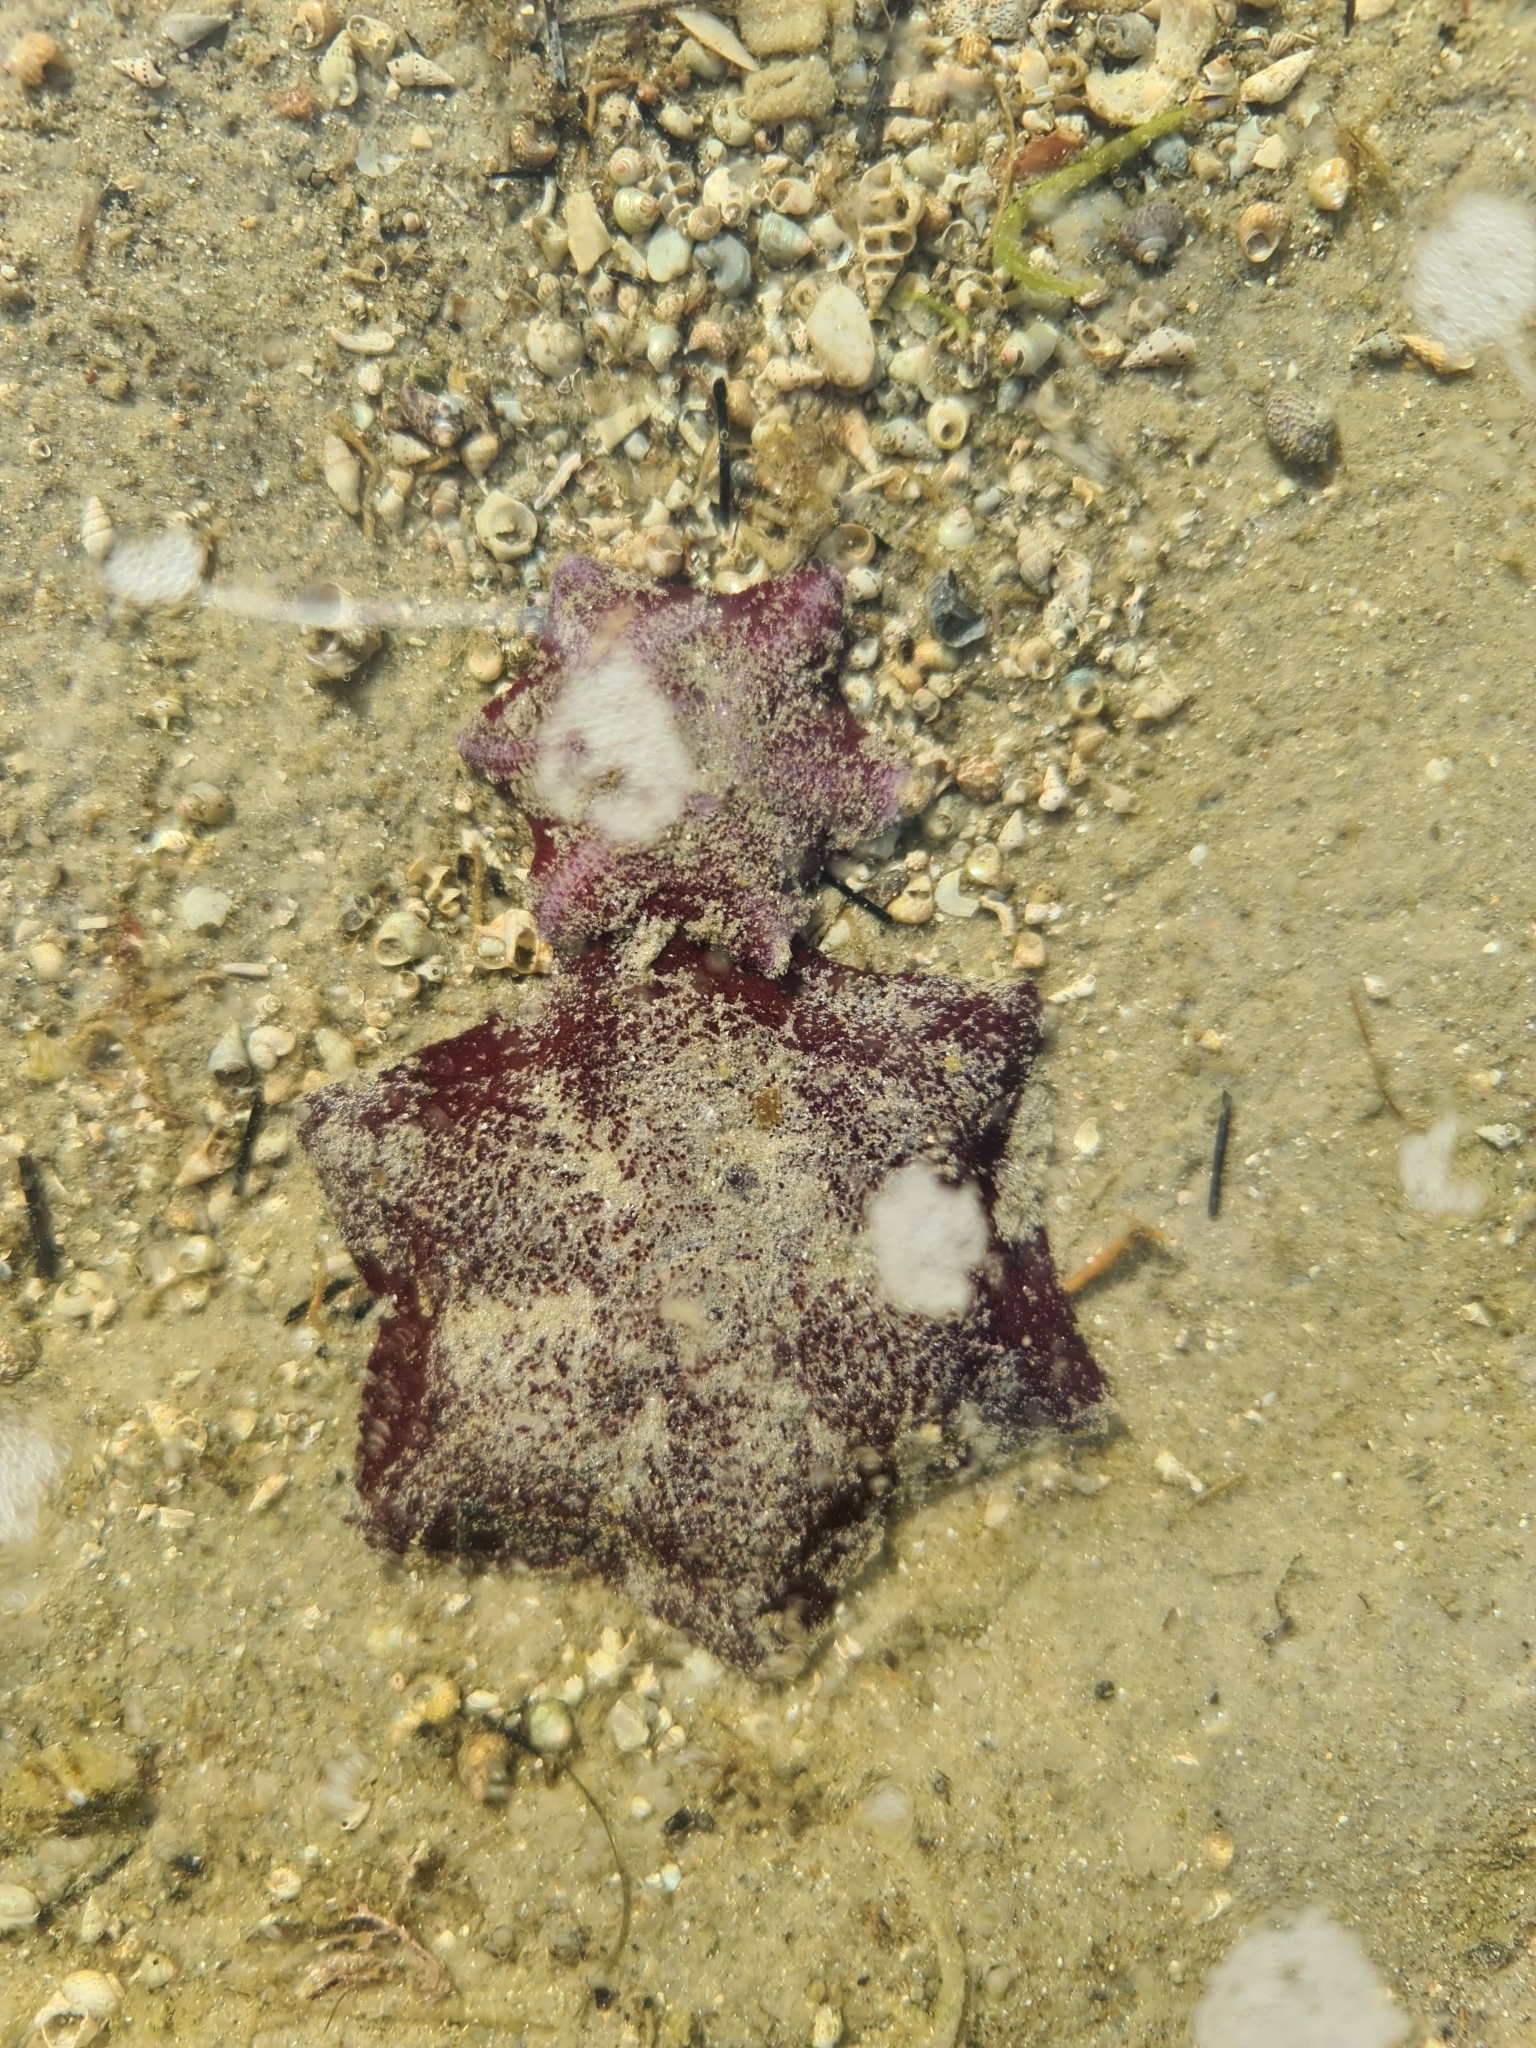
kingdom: Animalia
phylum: Echinodermata
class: Asteroidea
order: Valvatida
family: Asterinidae
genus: Meridiastra
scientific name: Meridiastra gunnii
